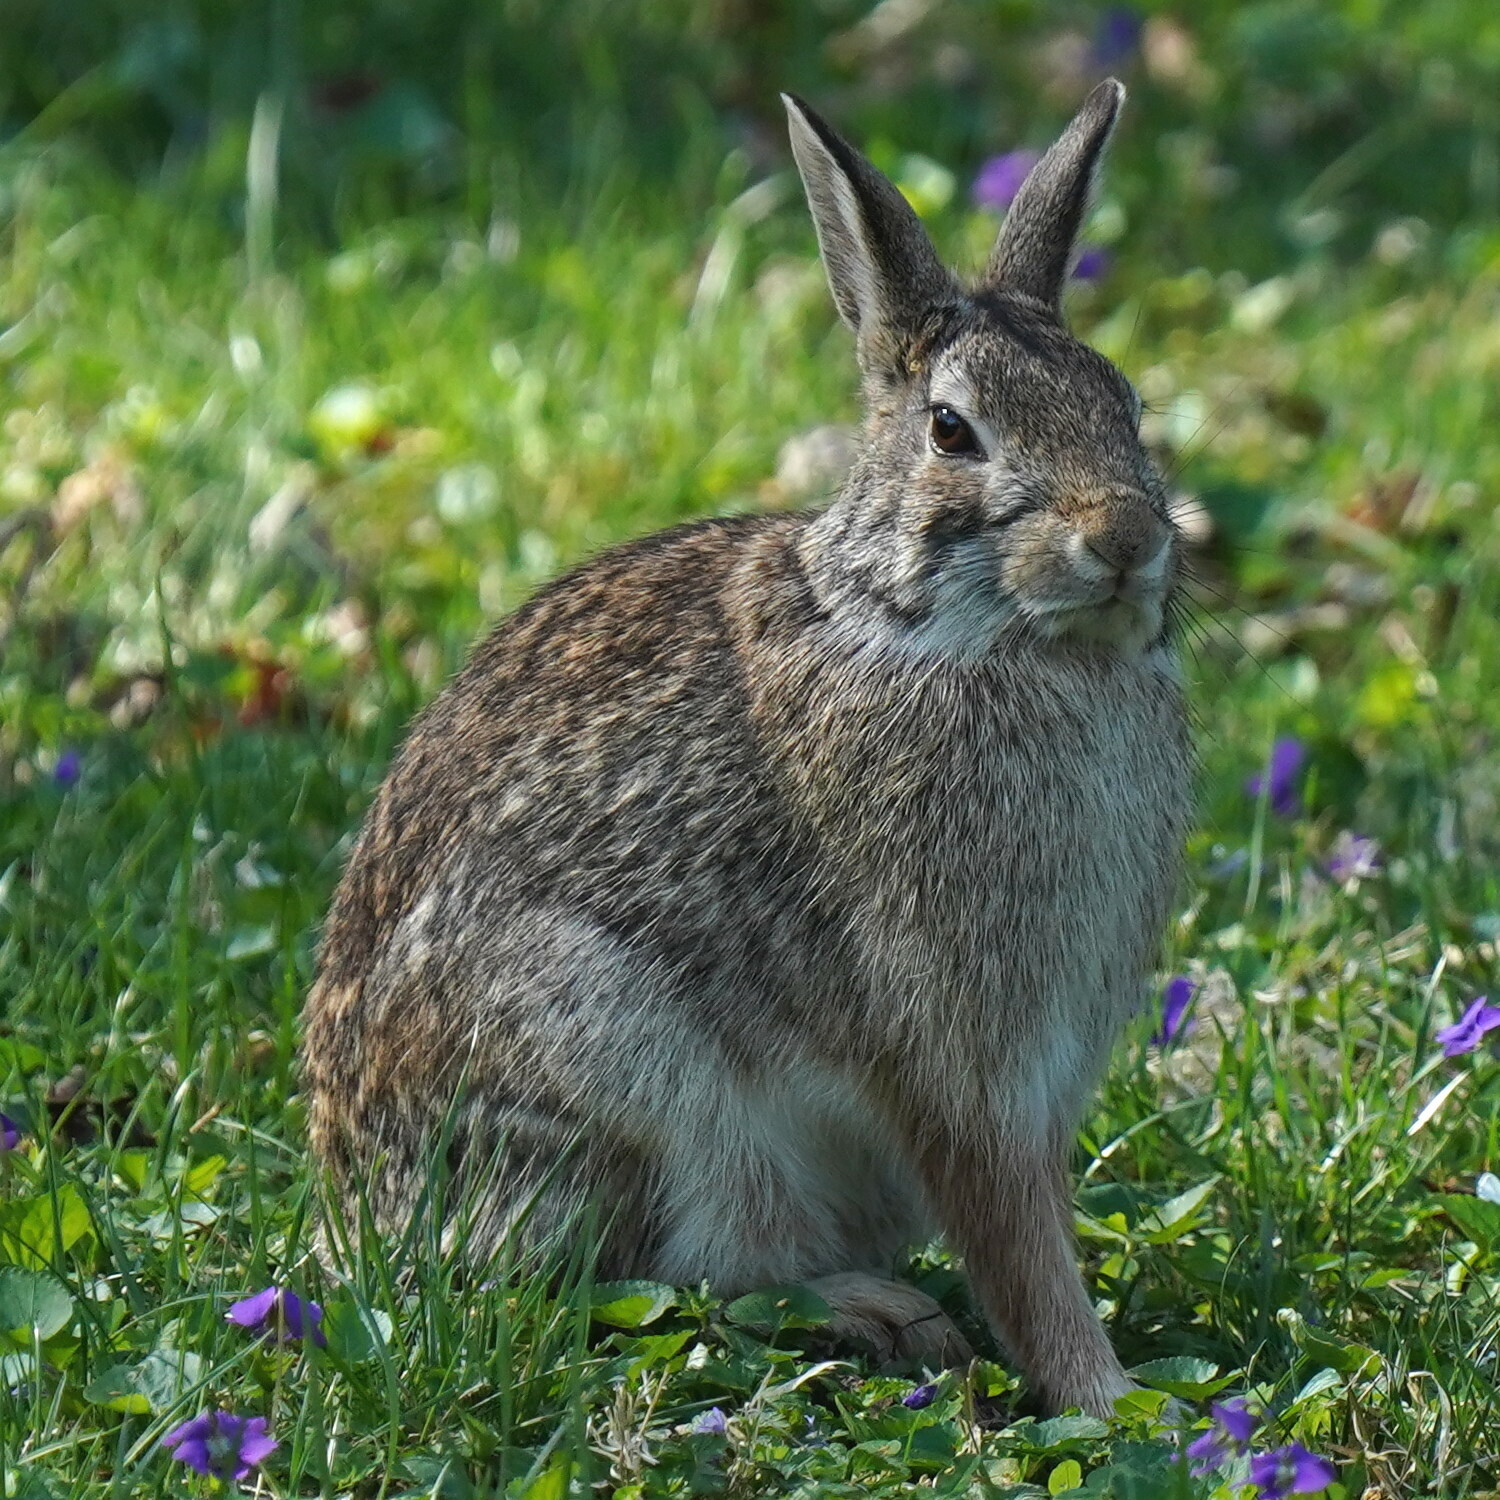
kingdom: Animalia
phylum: Chordata
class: Mammalia
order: Lagomorpha
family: Leporidae
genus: Sylvilagus
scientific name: Sylvilagus floridanus
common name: Eastern cottontail
